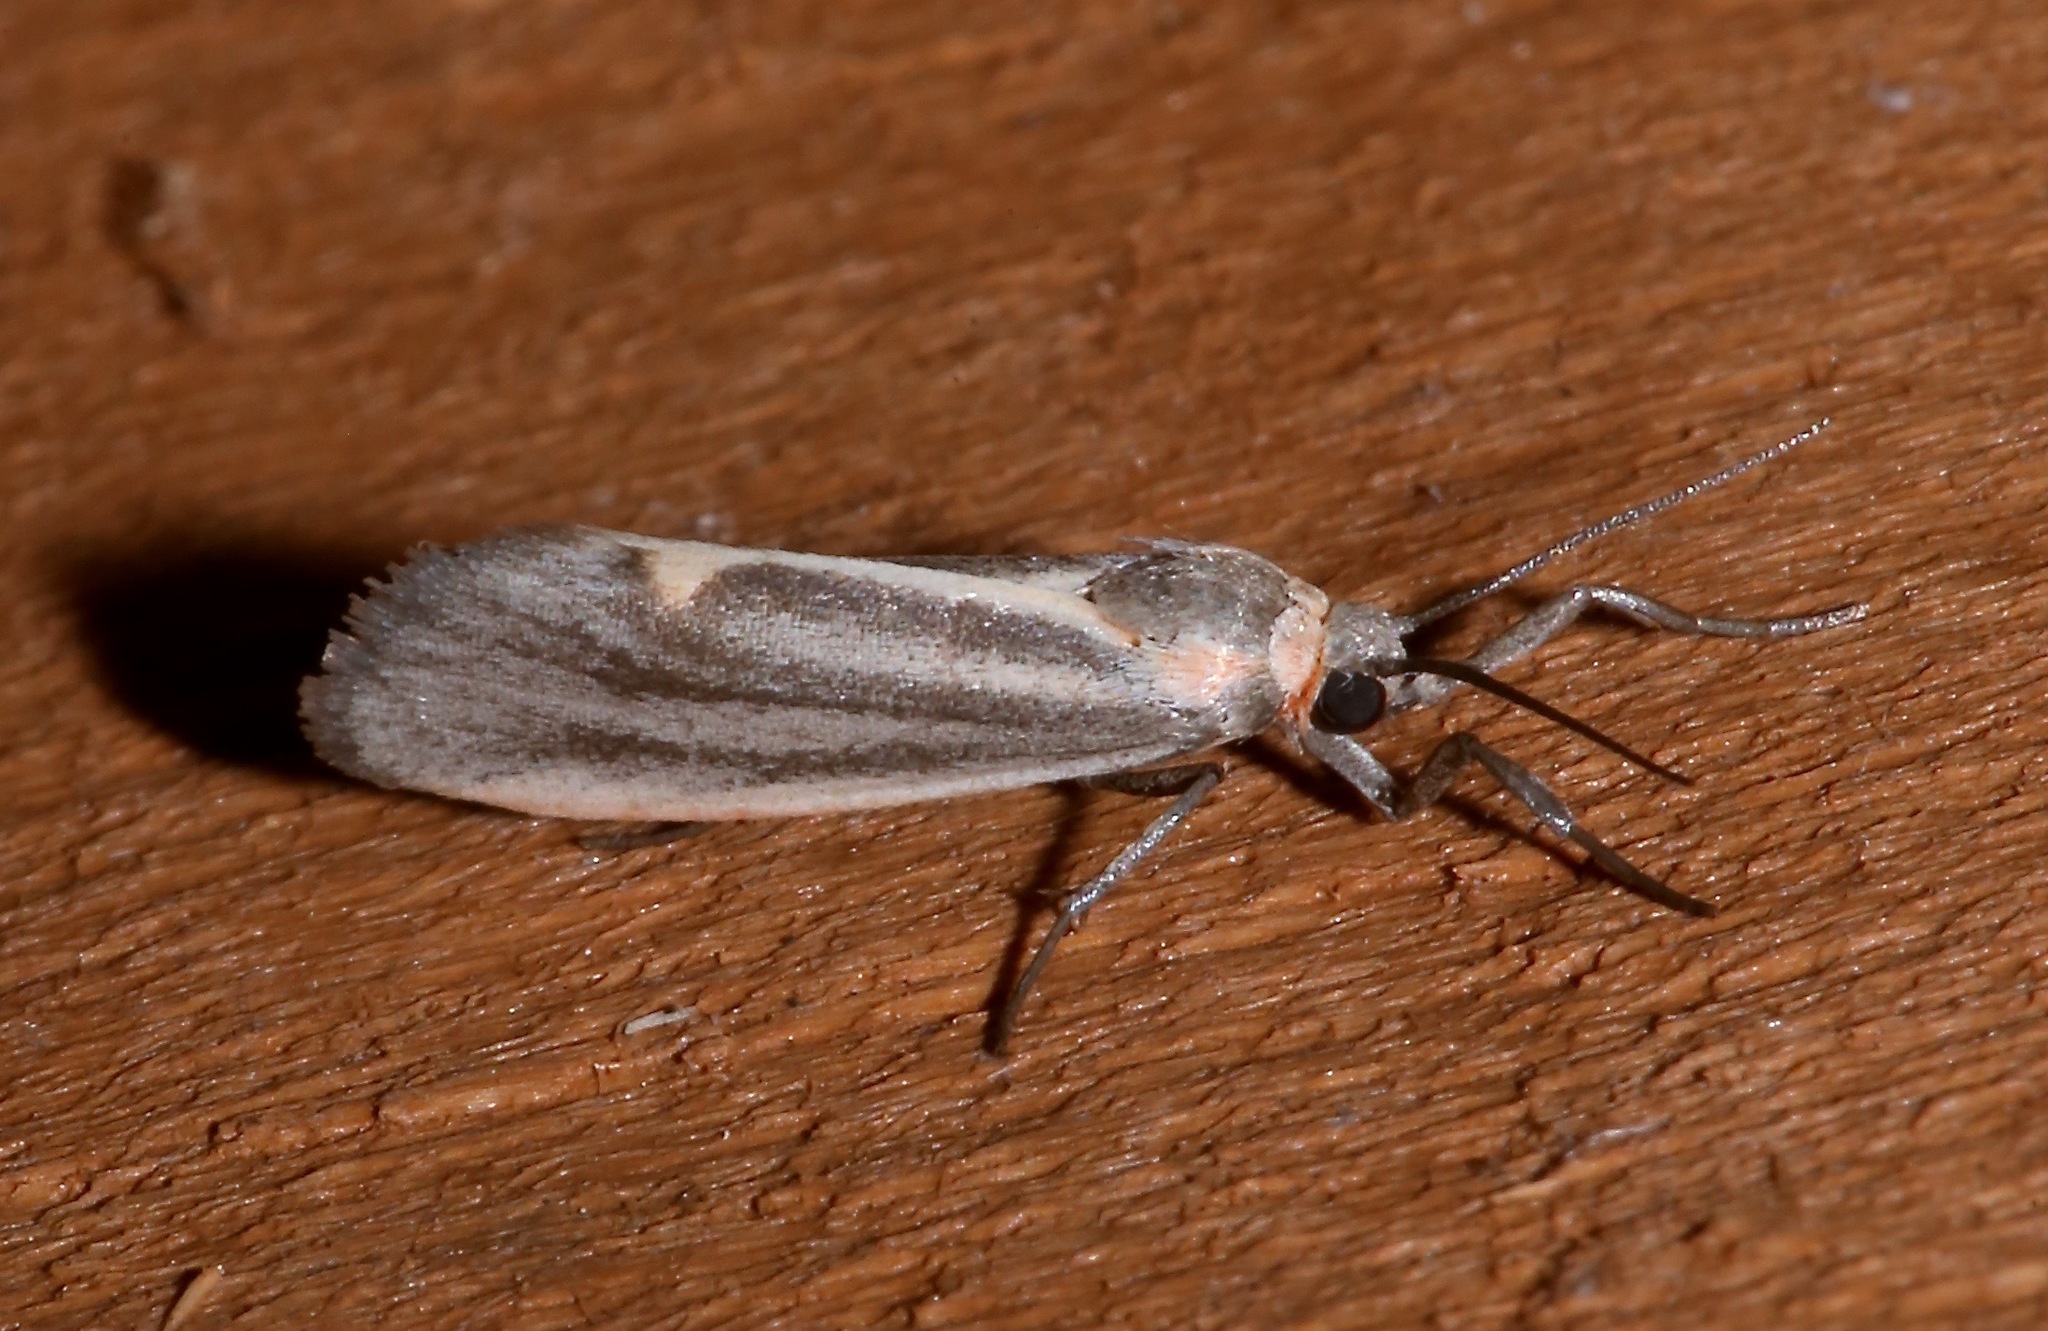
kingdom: Animalia
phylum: Arthropoda
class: Insecta
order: Lepidoptera
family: Erebidae
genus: Cisthene
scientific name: Cisthene striata
